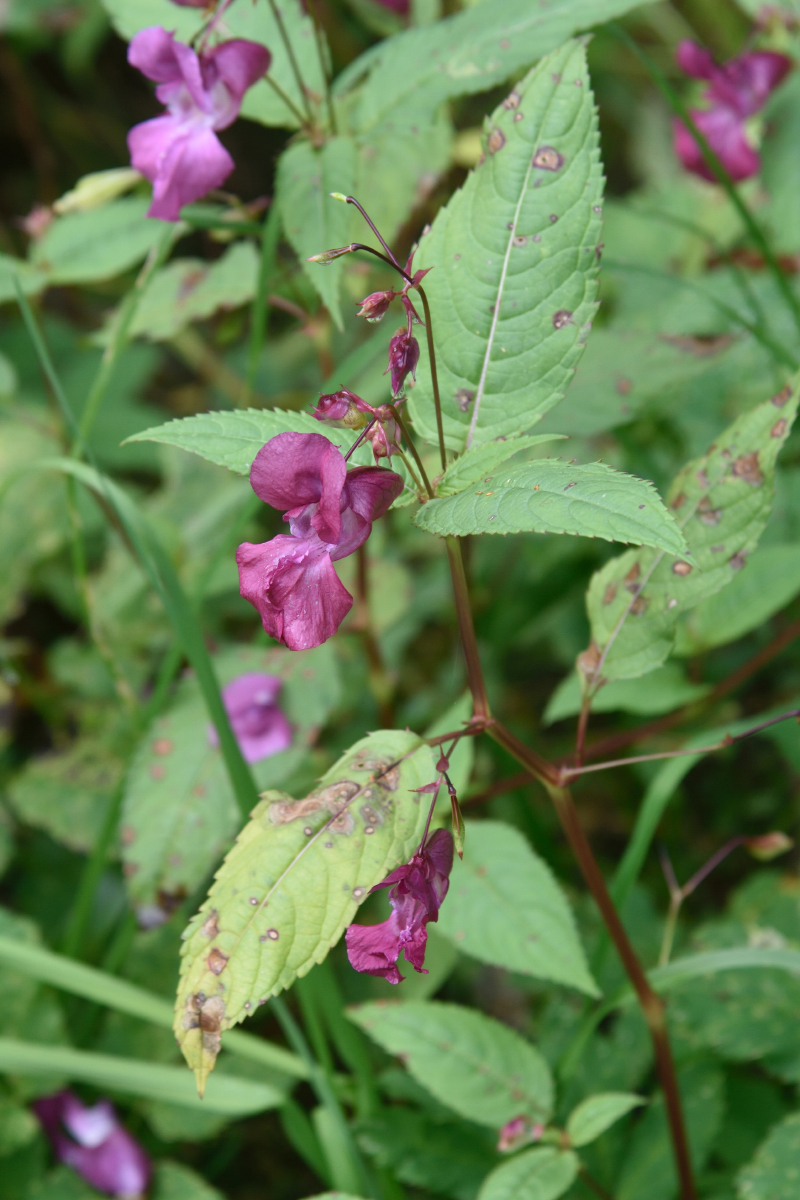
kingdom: Plantae
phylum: Tracheophyta
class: Magnoliopsida
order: Ericales
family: Balsaminaceae
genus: Impatiens
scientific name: Impatiens glandulifera
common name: Himalayan balsam
